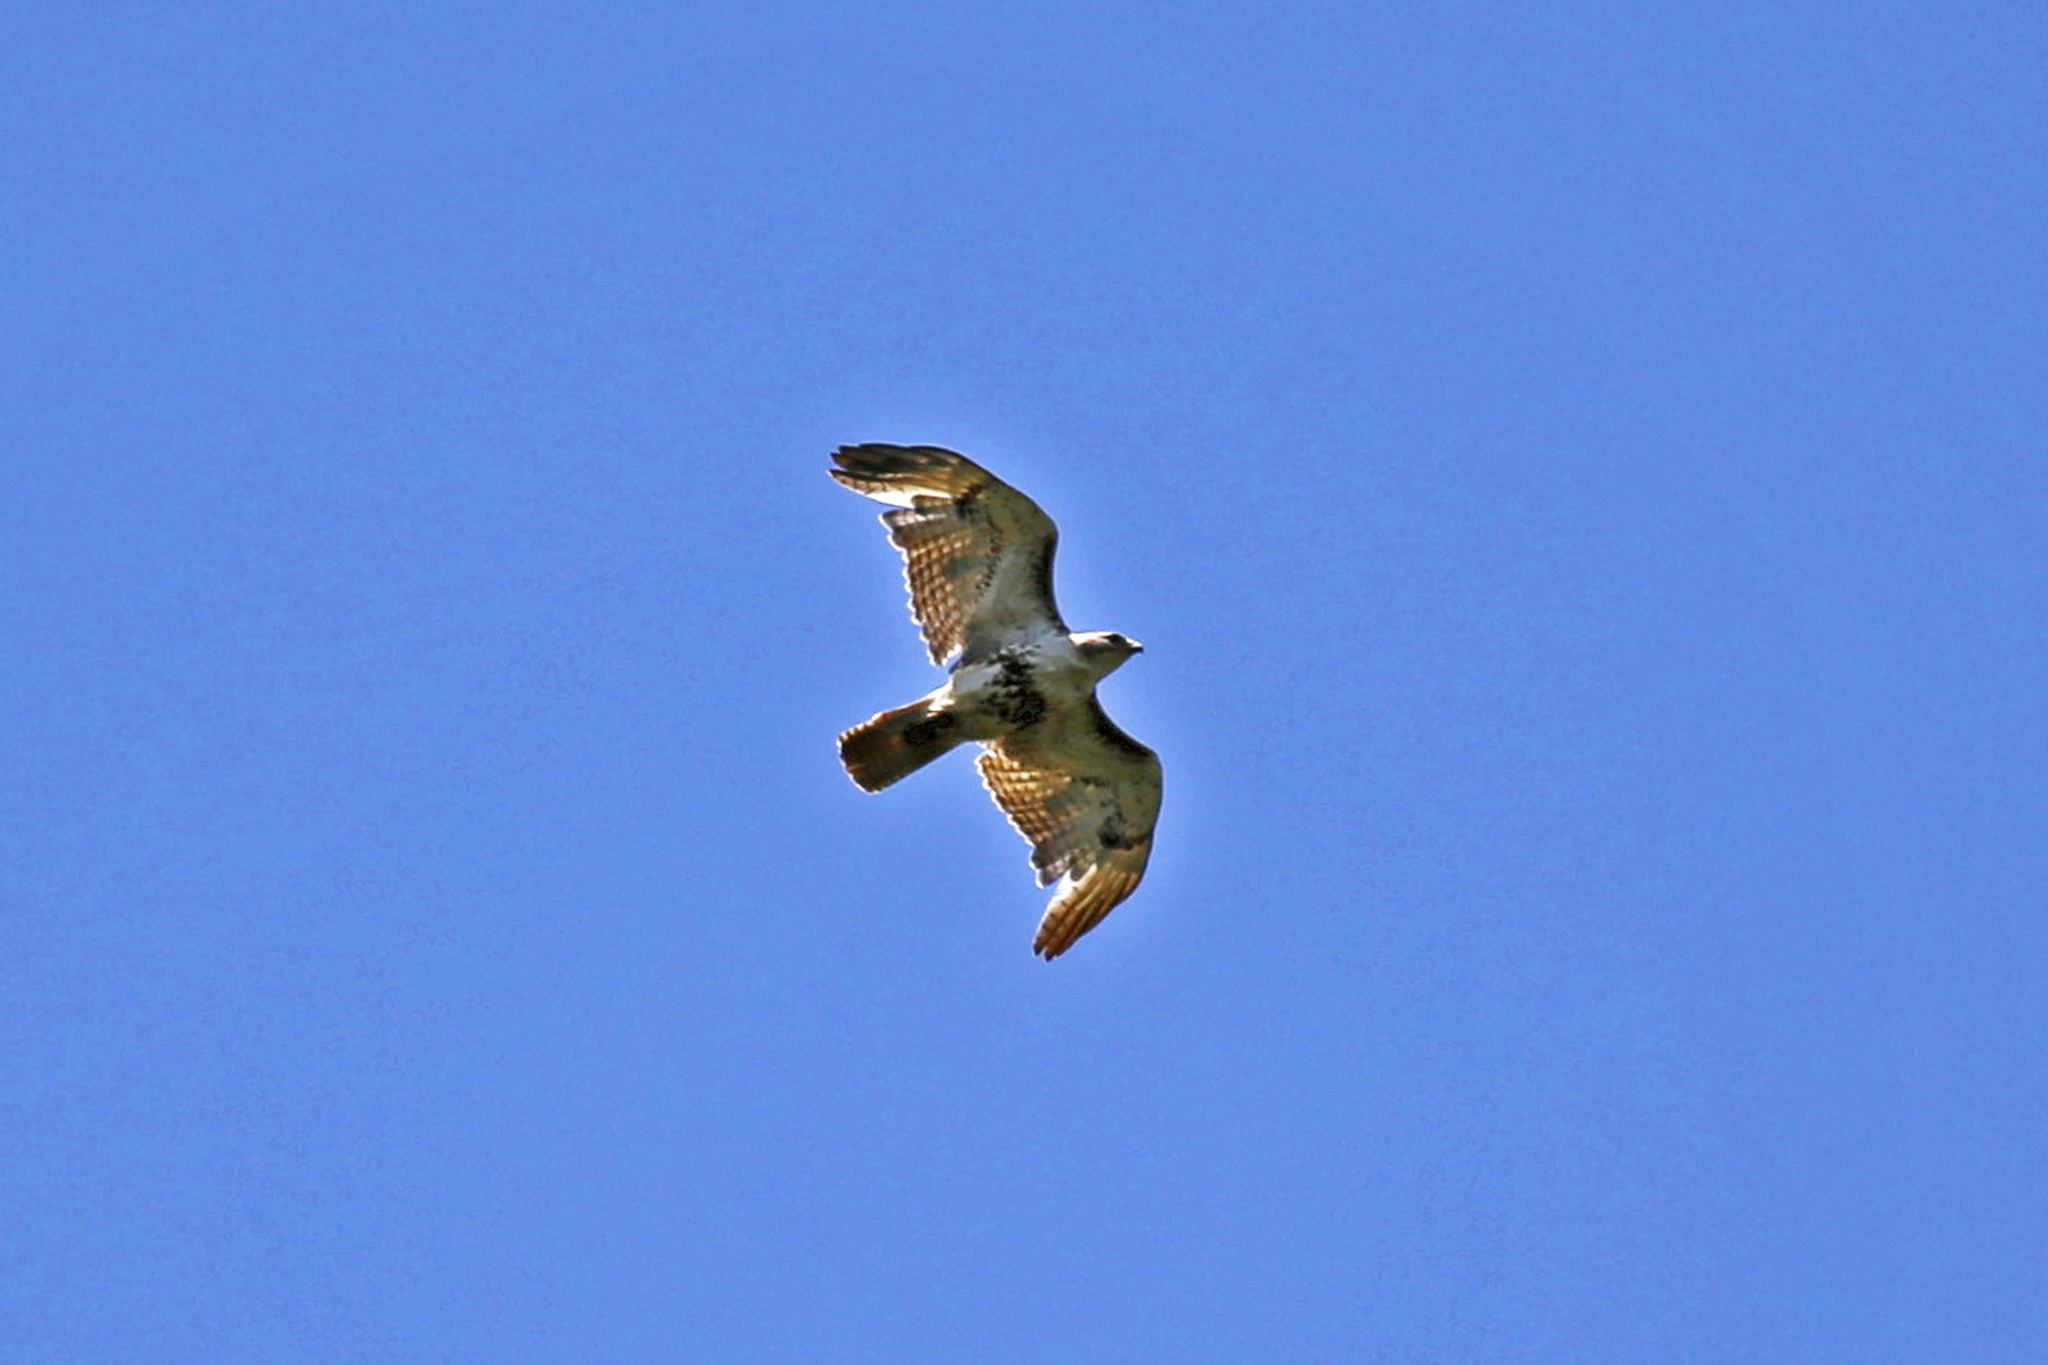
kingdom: Animalia
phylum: Chordata
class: Aves
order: Accipitriformes
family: Accipitridae
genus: Buteo
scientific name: Buteo jamaicensis
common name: Red-tailed hawk
